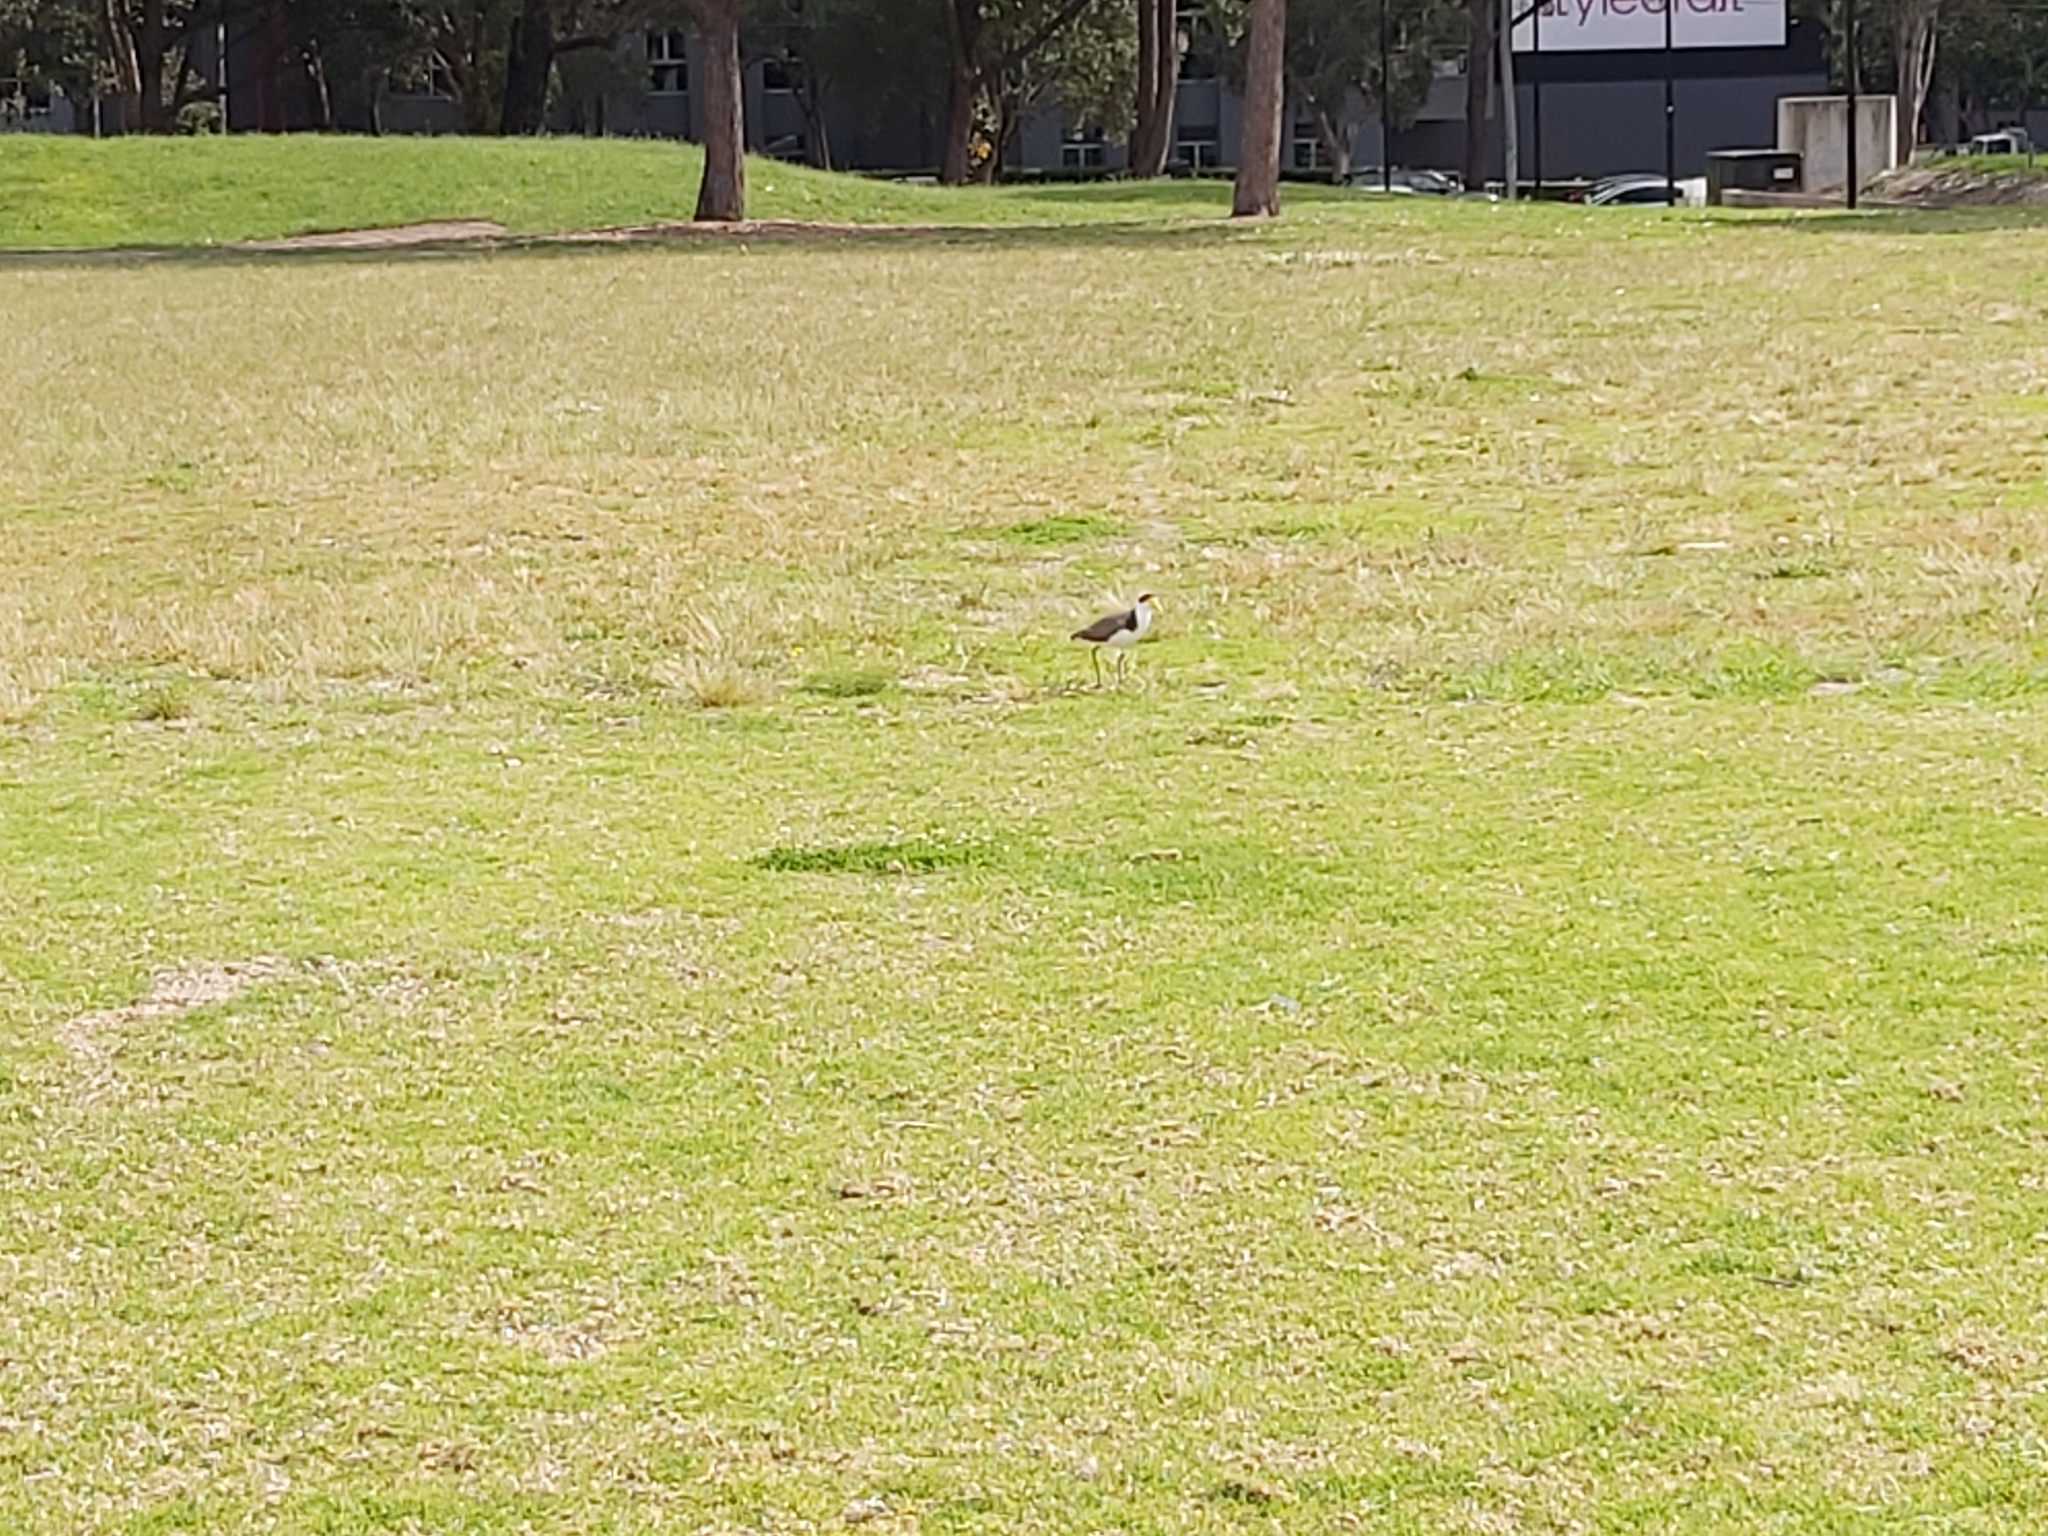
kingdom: Animalia
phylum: Chordata
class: Aves
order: Charadriiformes
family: Charadriidae
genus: Vanellus
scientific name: Vanellus miles
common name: Masked lapwing
